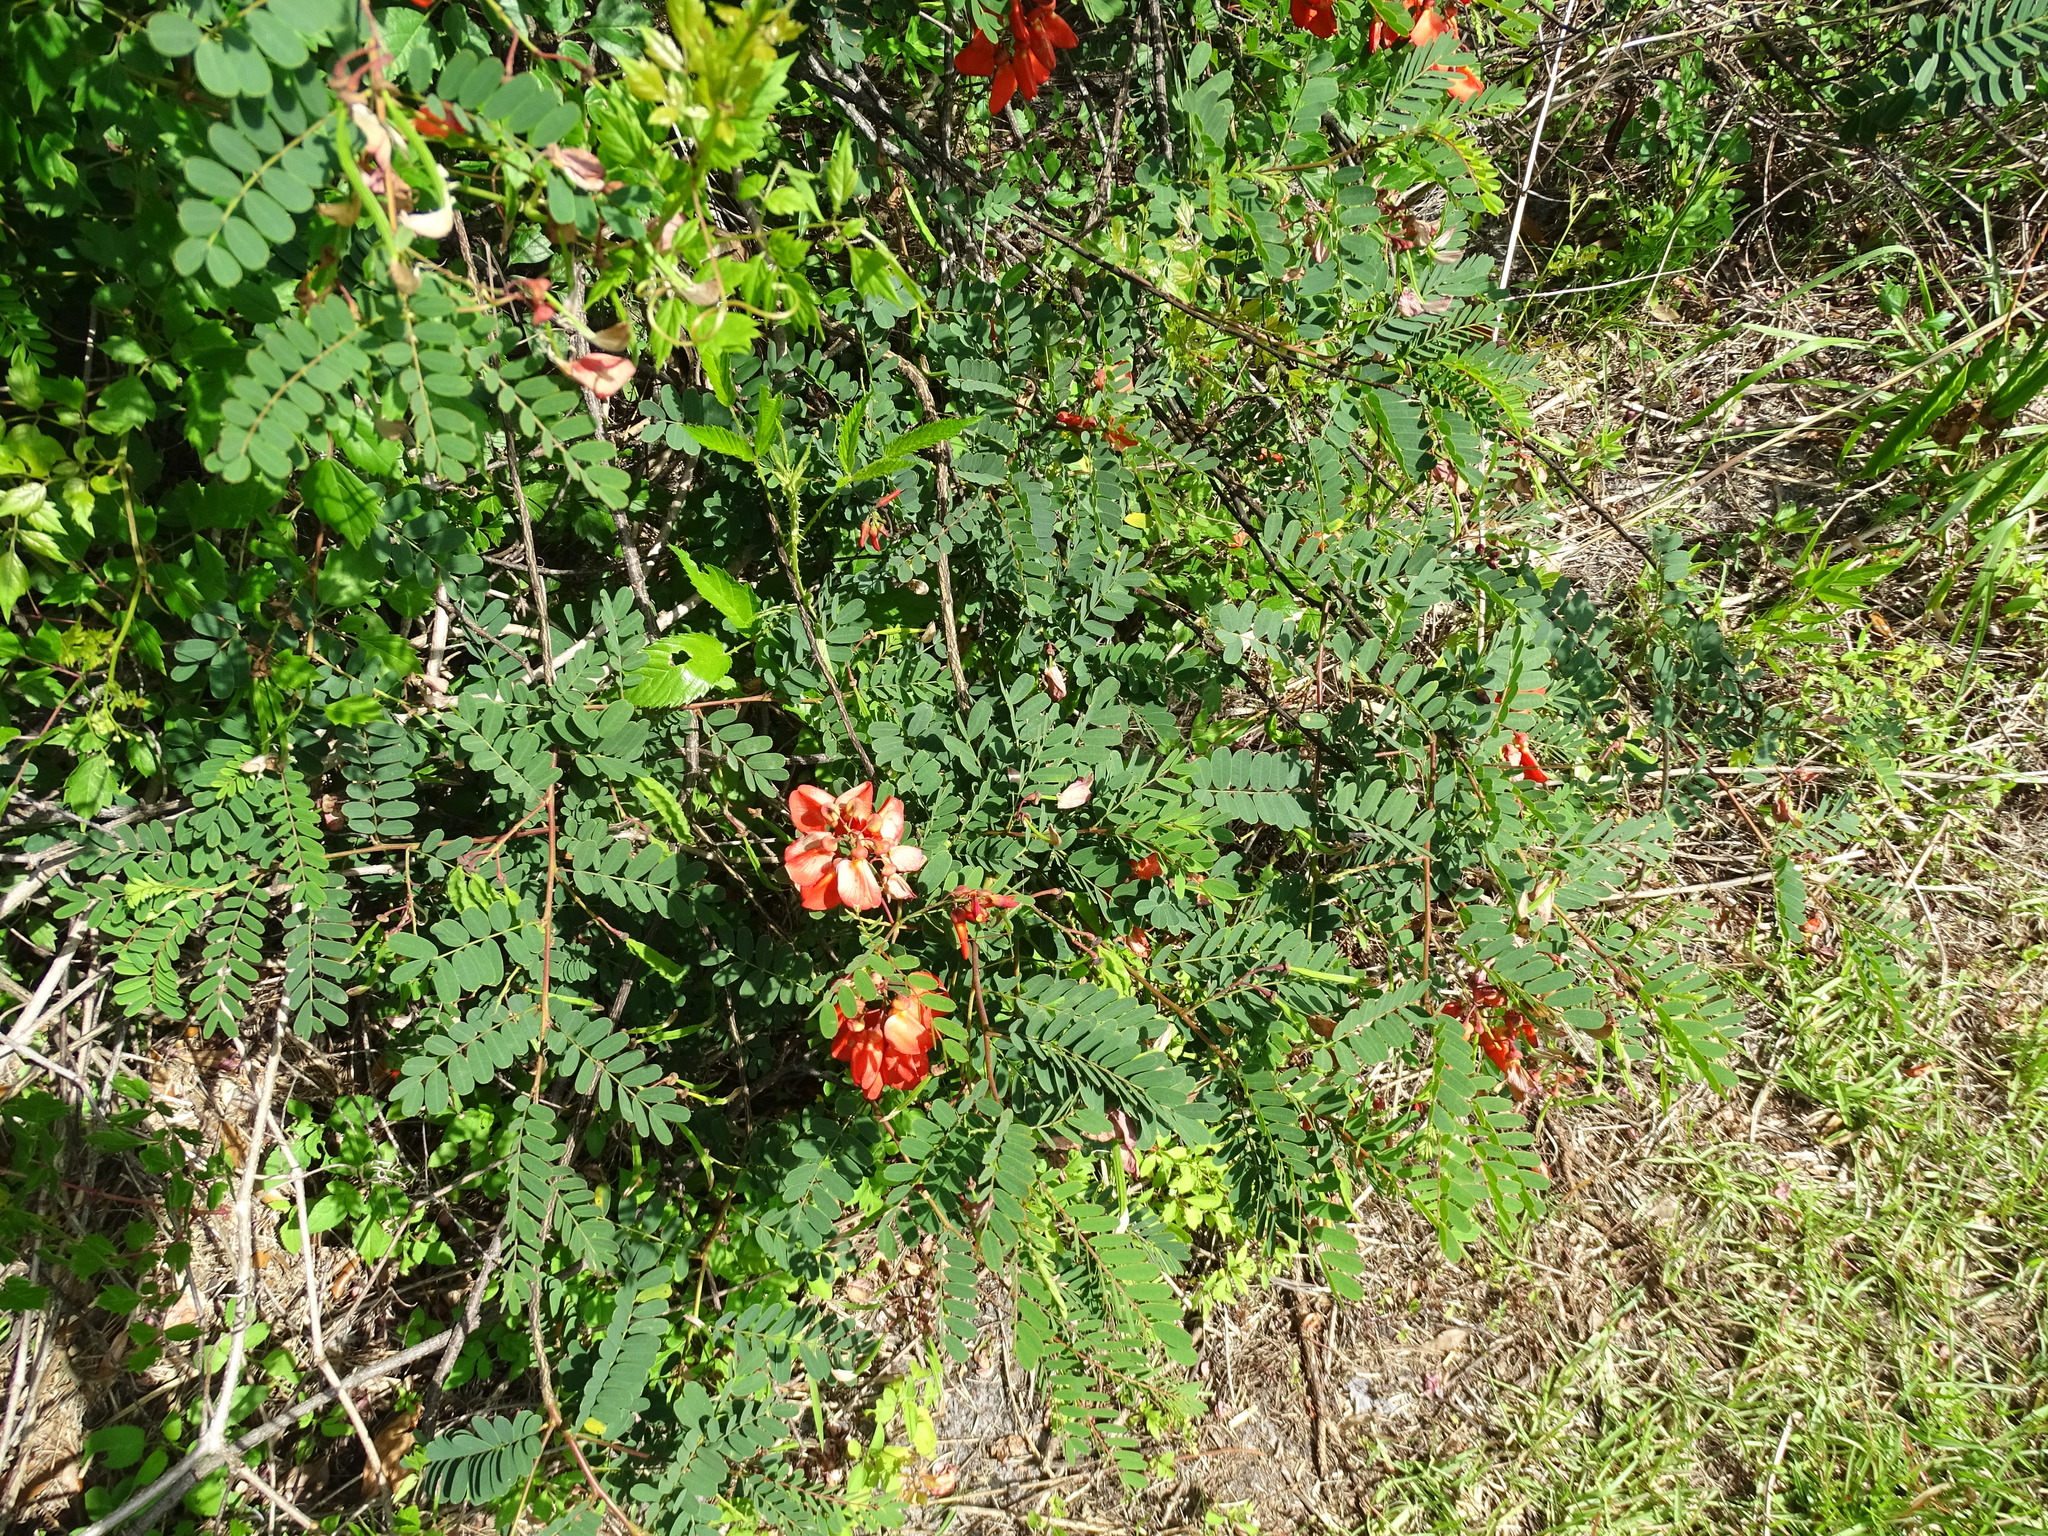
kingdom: Plantae
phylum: Tracheophyta
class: Magnoliopsida
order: Fabales
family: Fabaceae
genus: Sesbania
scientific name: Sesbania punicea
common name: Rattlebox
